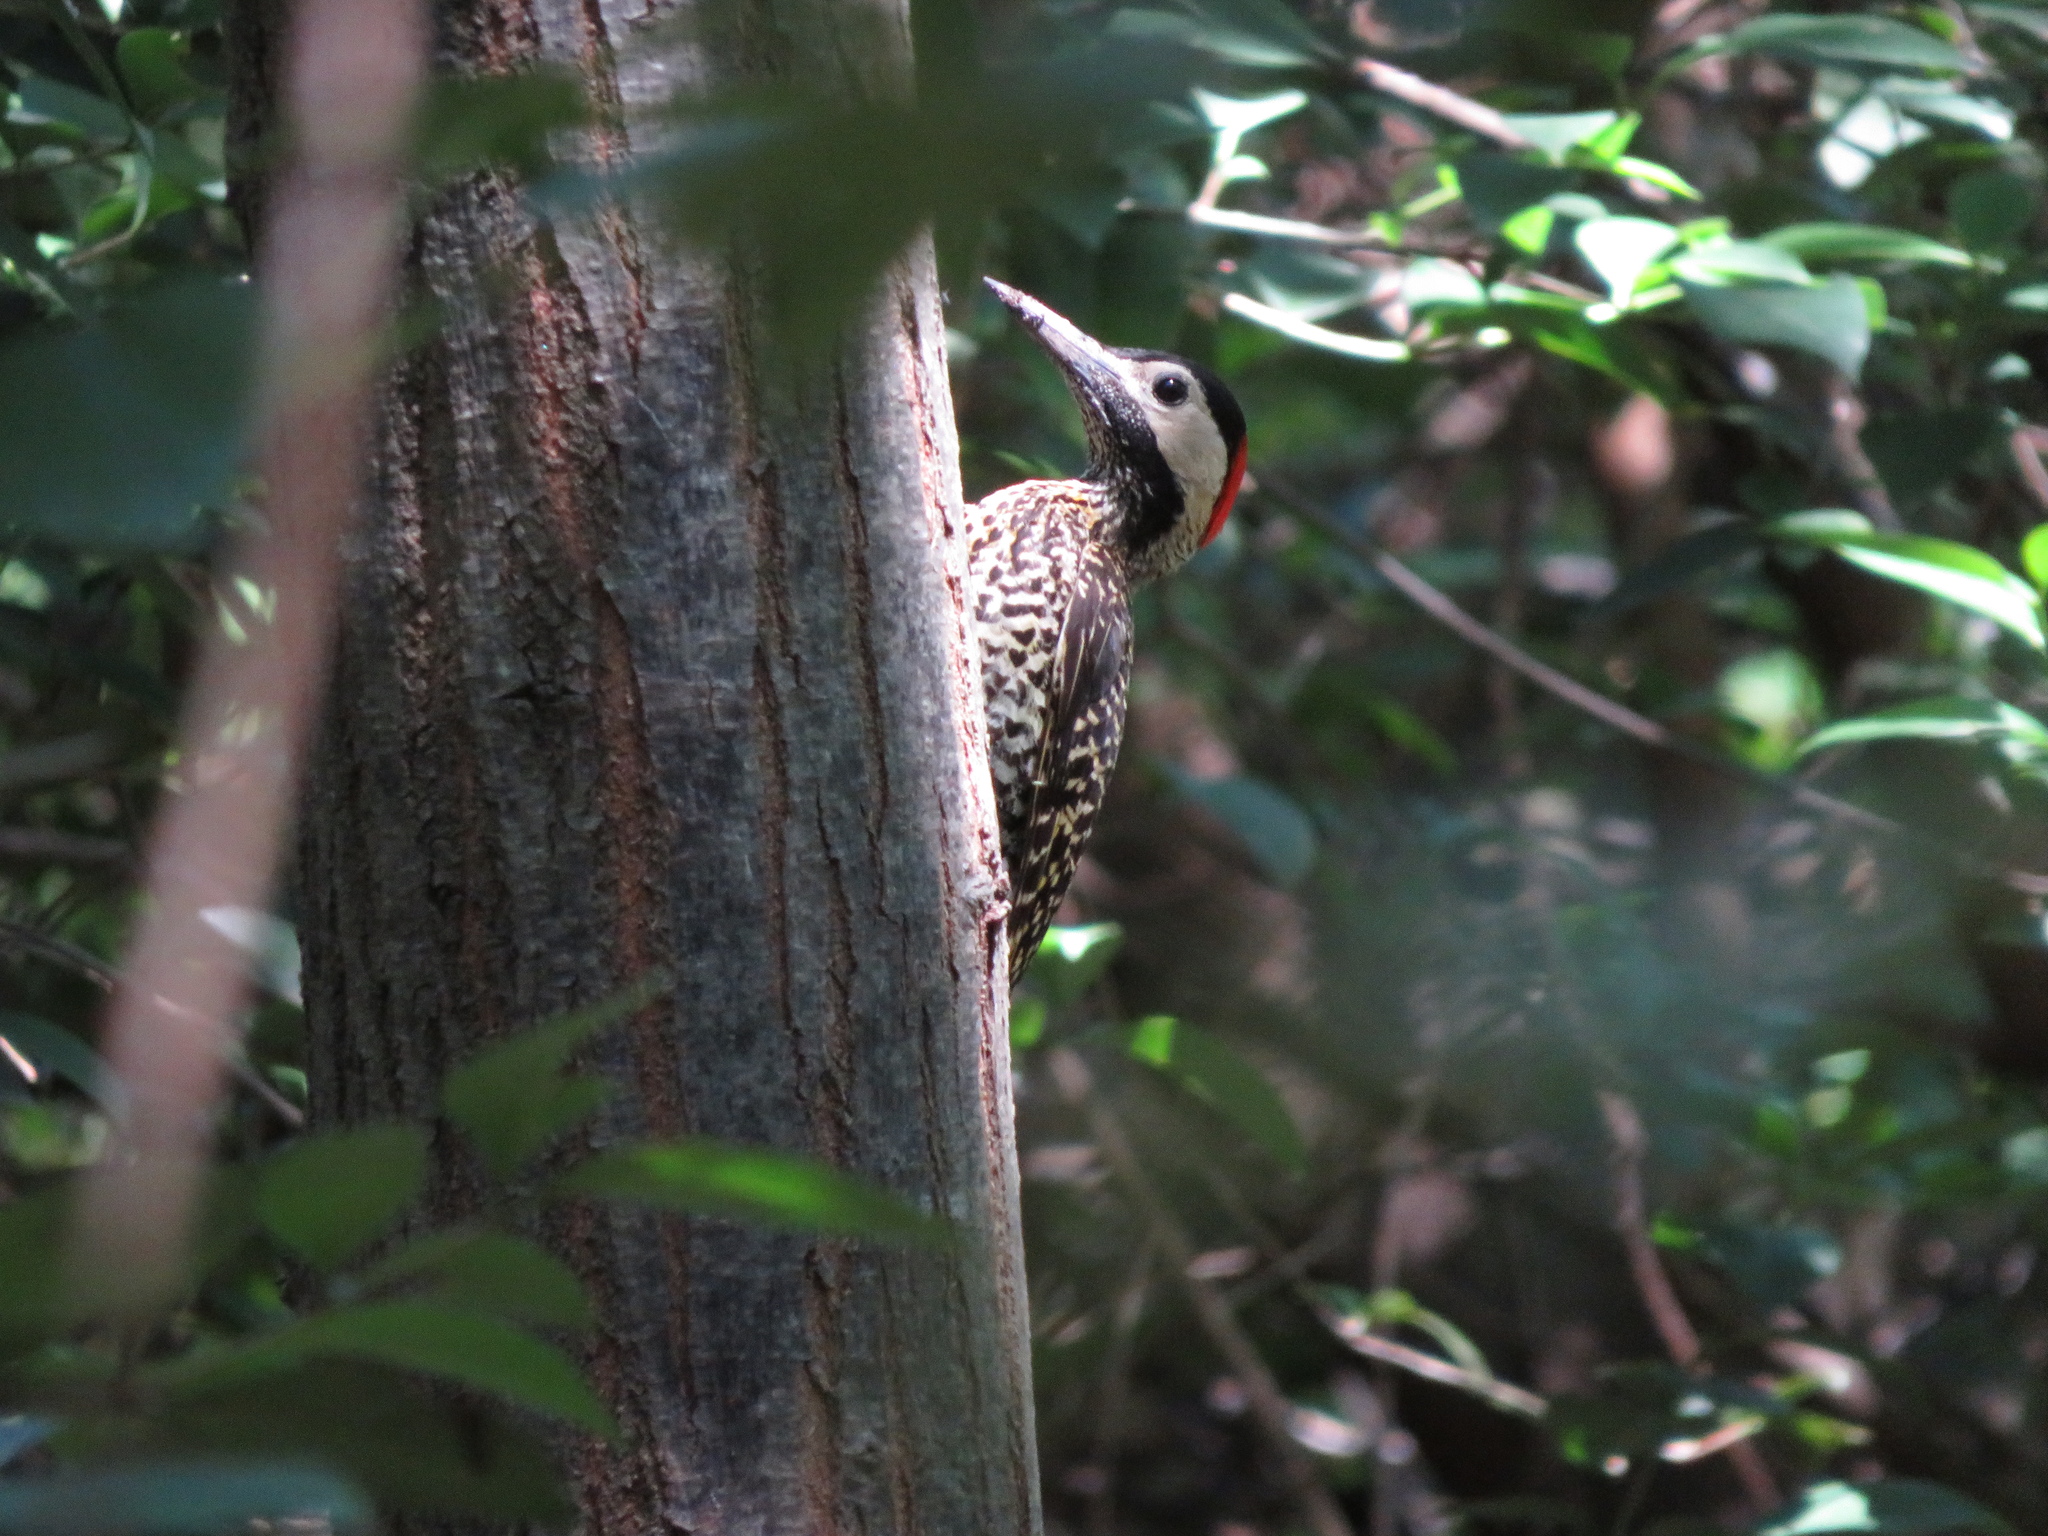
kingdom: Animalia
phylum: Chordata
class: Aves
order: Piciformes
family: Picidae
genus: Colaptes
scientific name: Colaptes melanochloros
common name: Green-barred woodpecker
